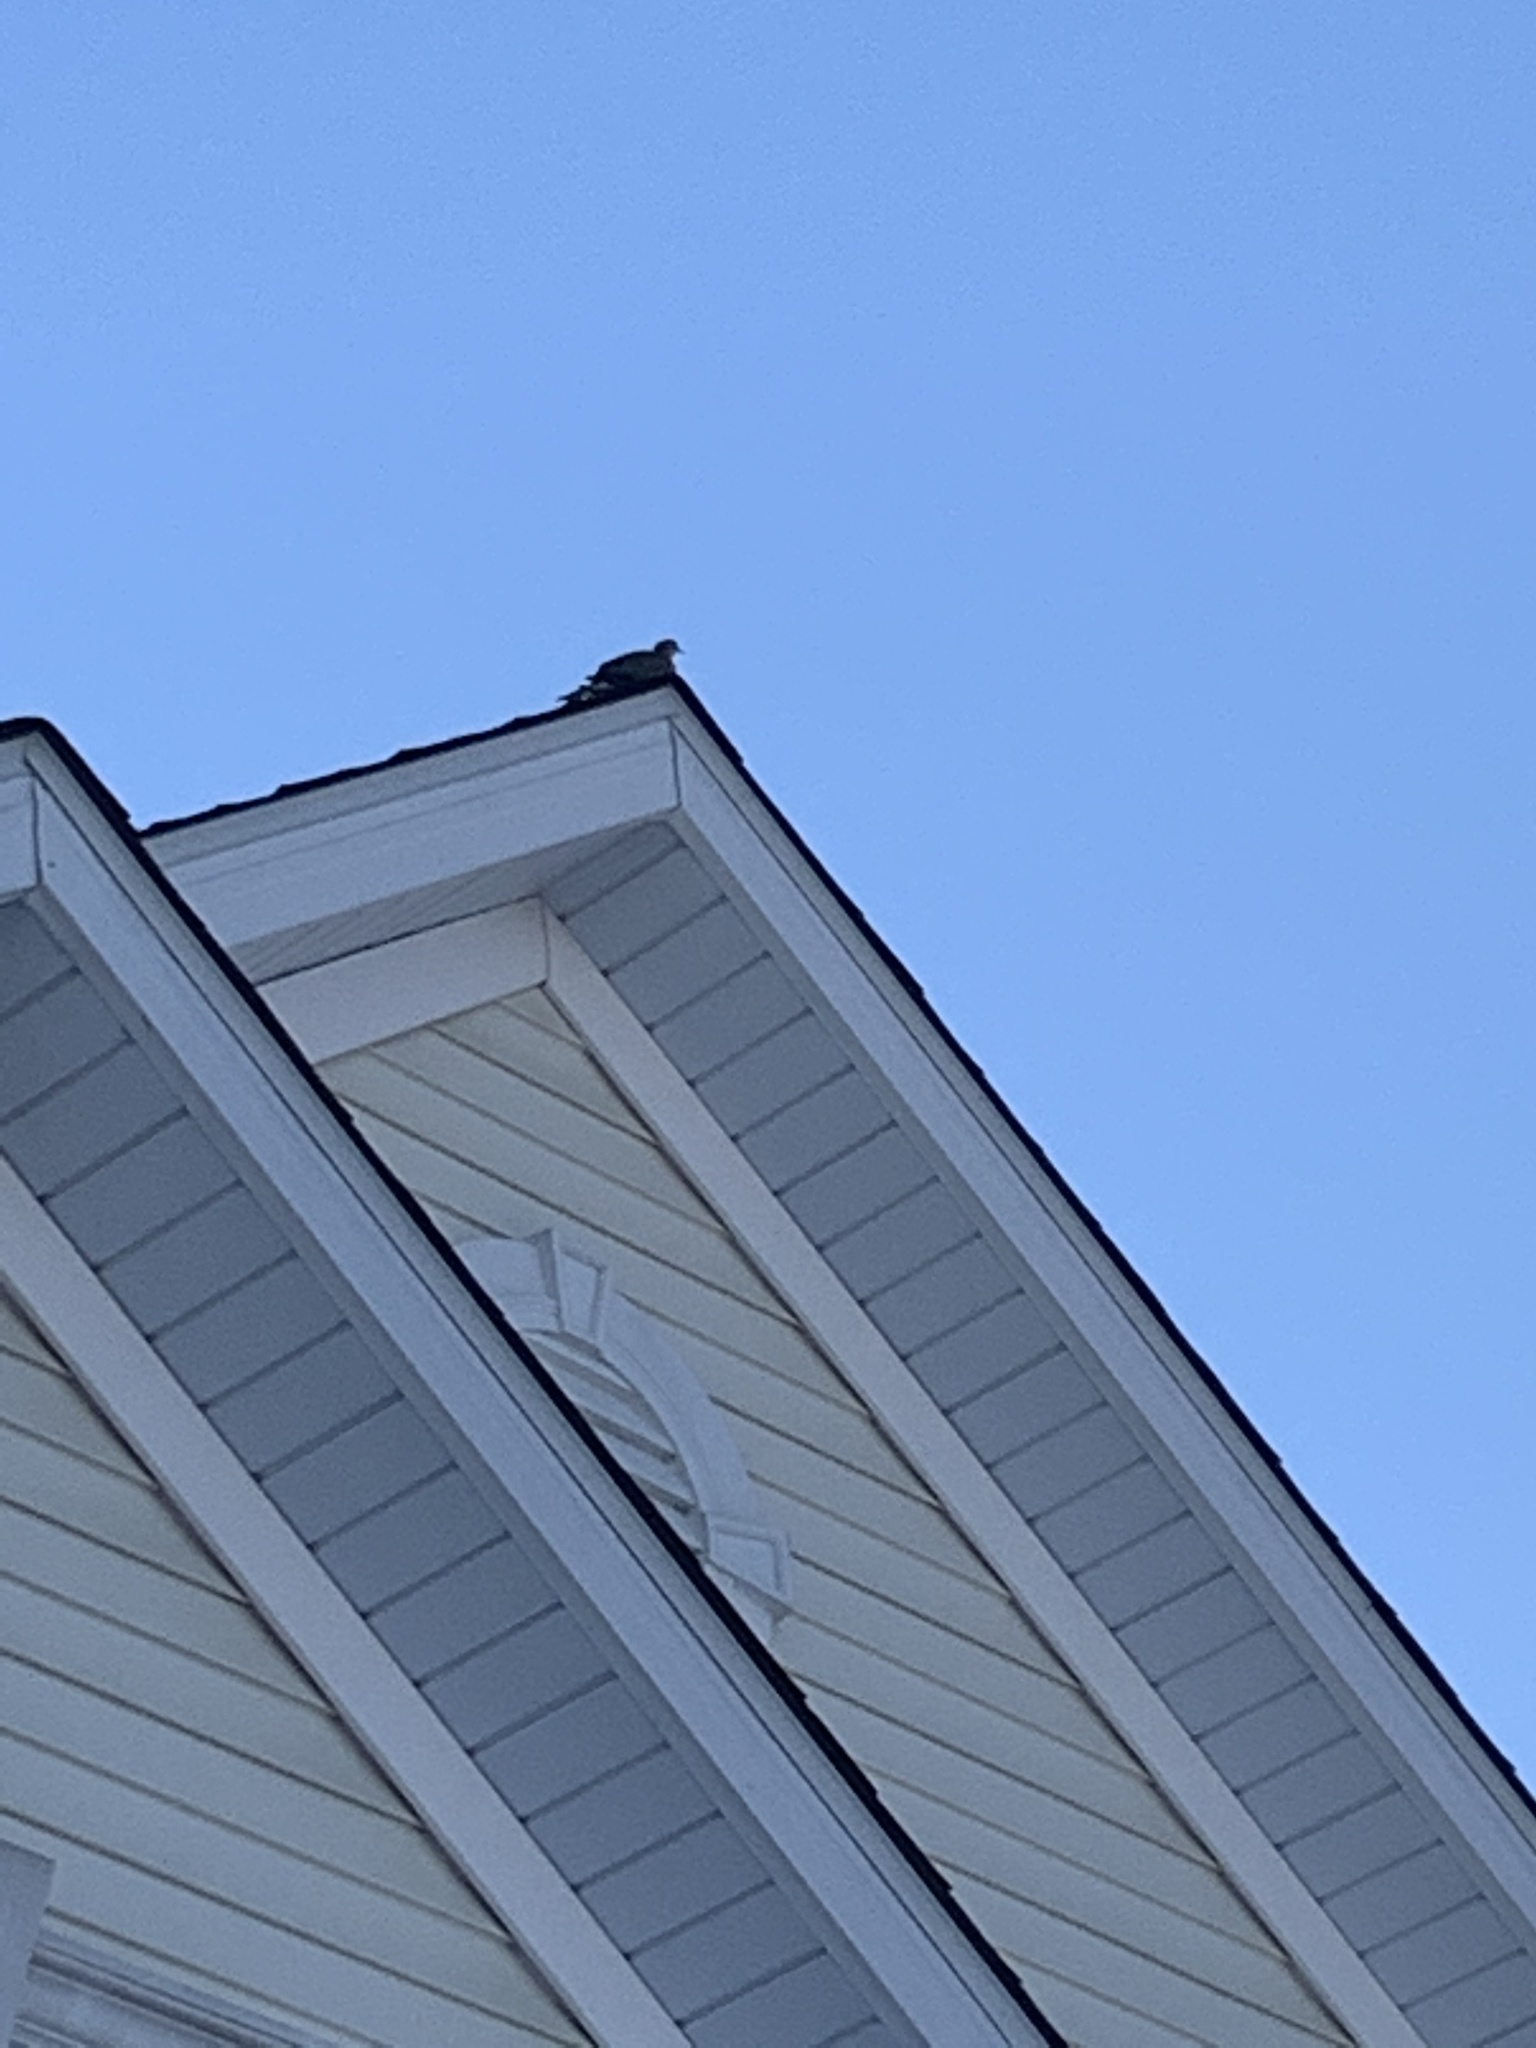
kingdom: Animalia
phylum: Chordata
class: Aves
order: Columbiformes
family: Columbidae
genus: Zenaida
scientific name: Zenaida macroura
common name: Mourning dove
